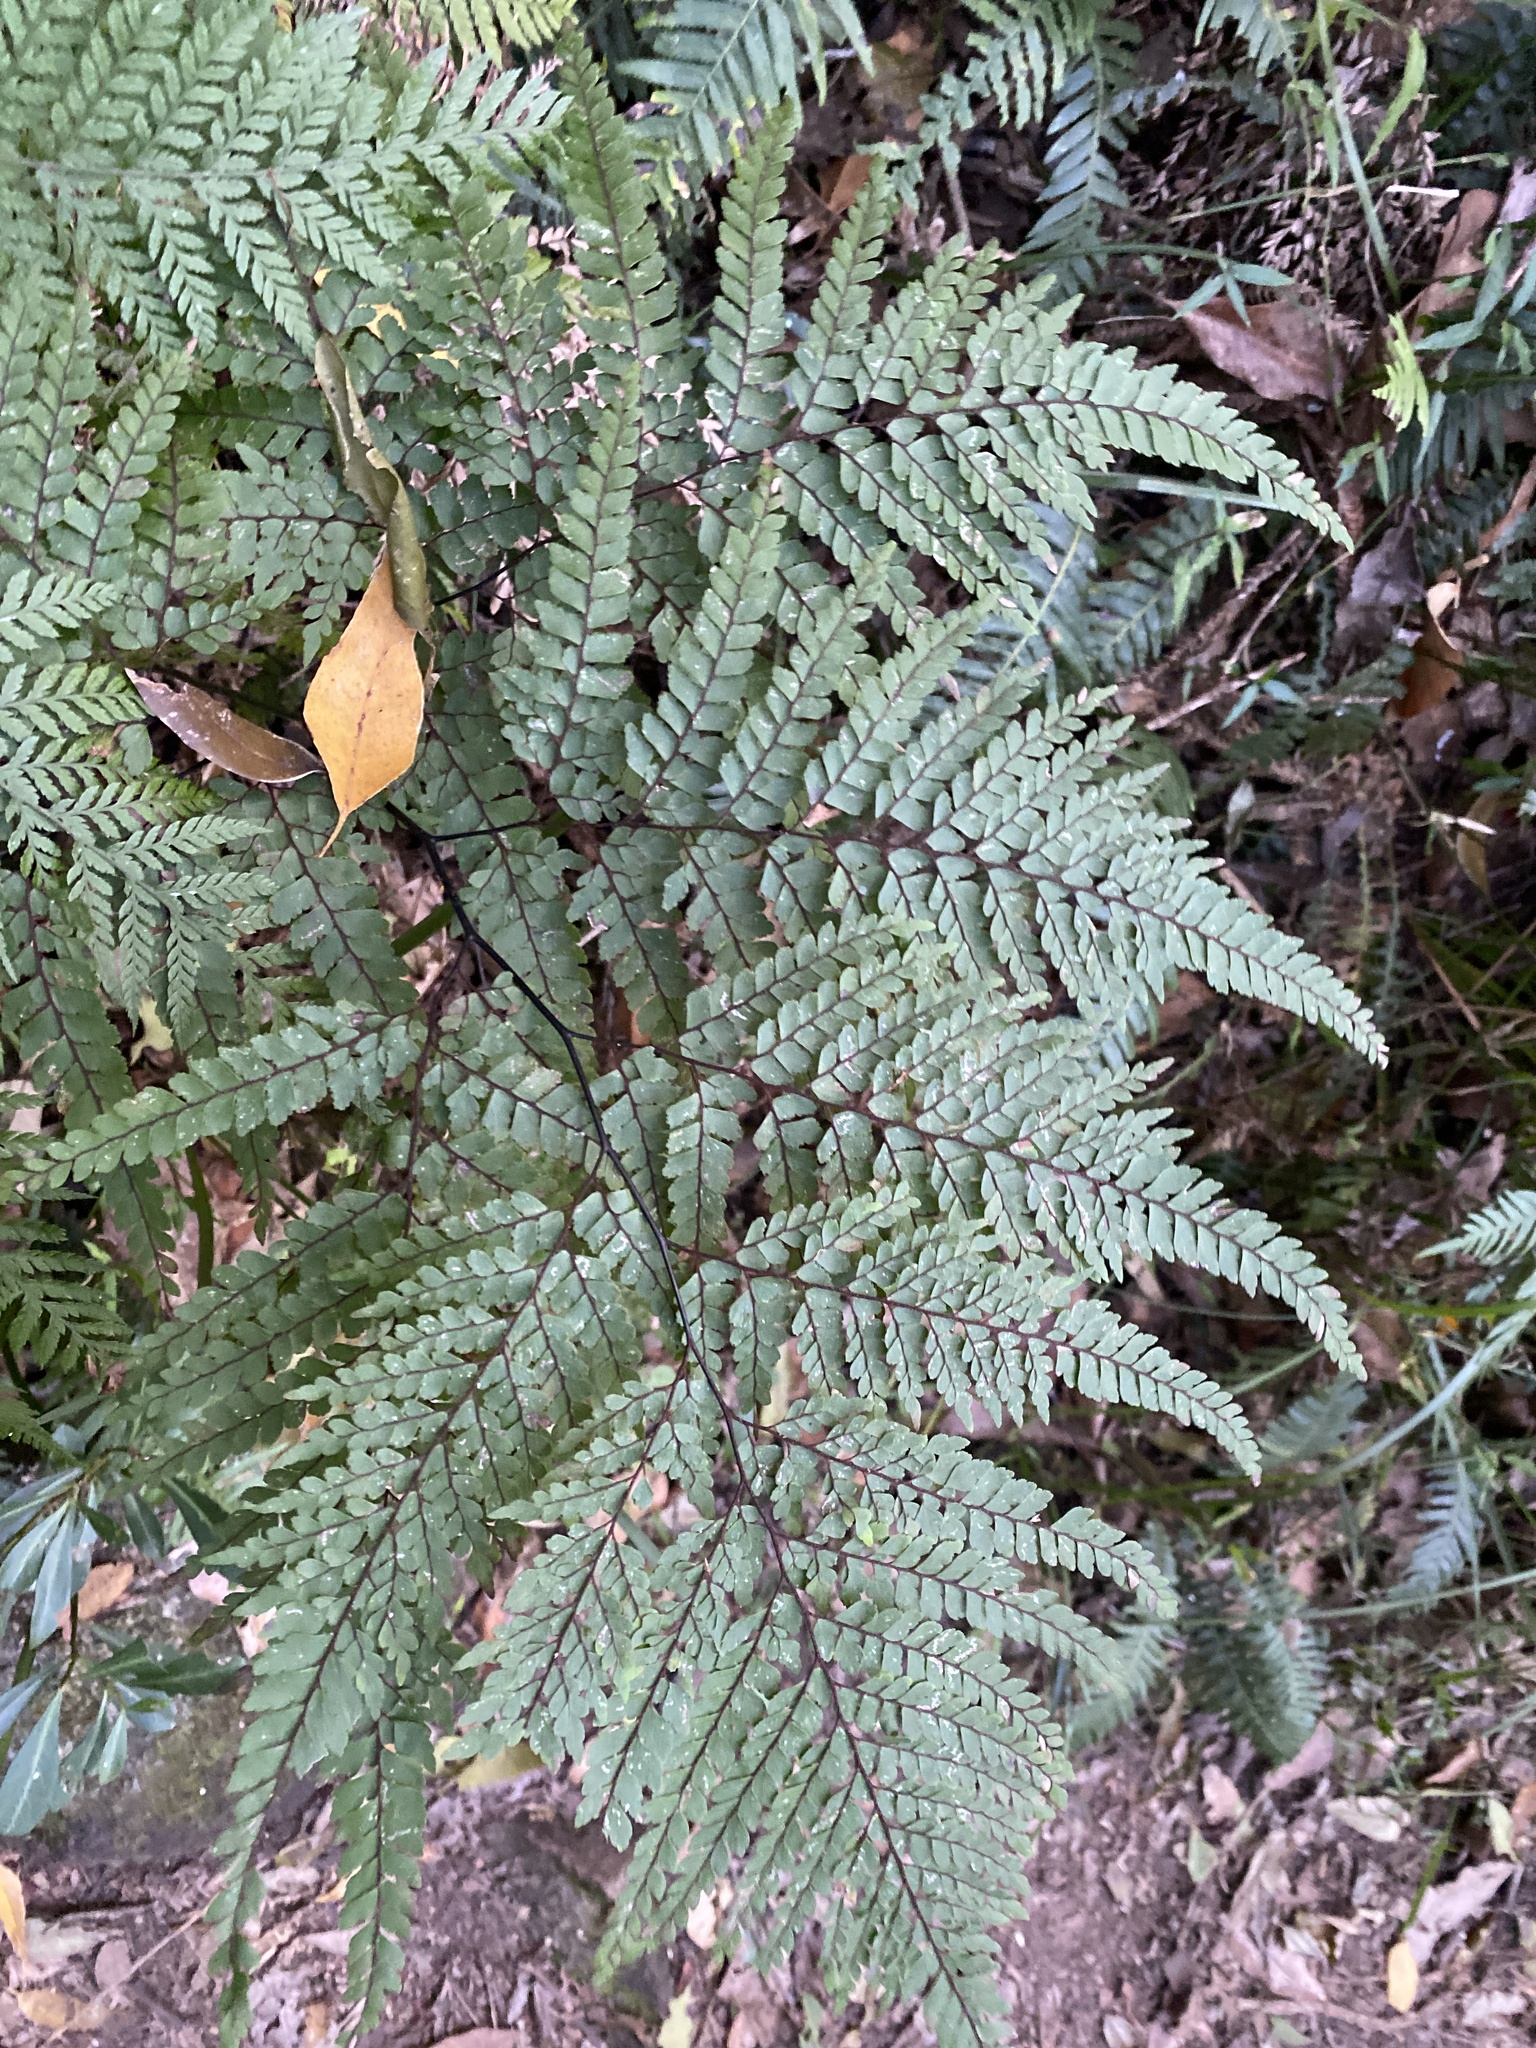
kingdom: Plantae
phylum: Tracheophyta
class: Polypodiopsida
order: Polypodiales
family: Pteridaceae
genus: Adiantum
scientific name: Adiantum formosum
